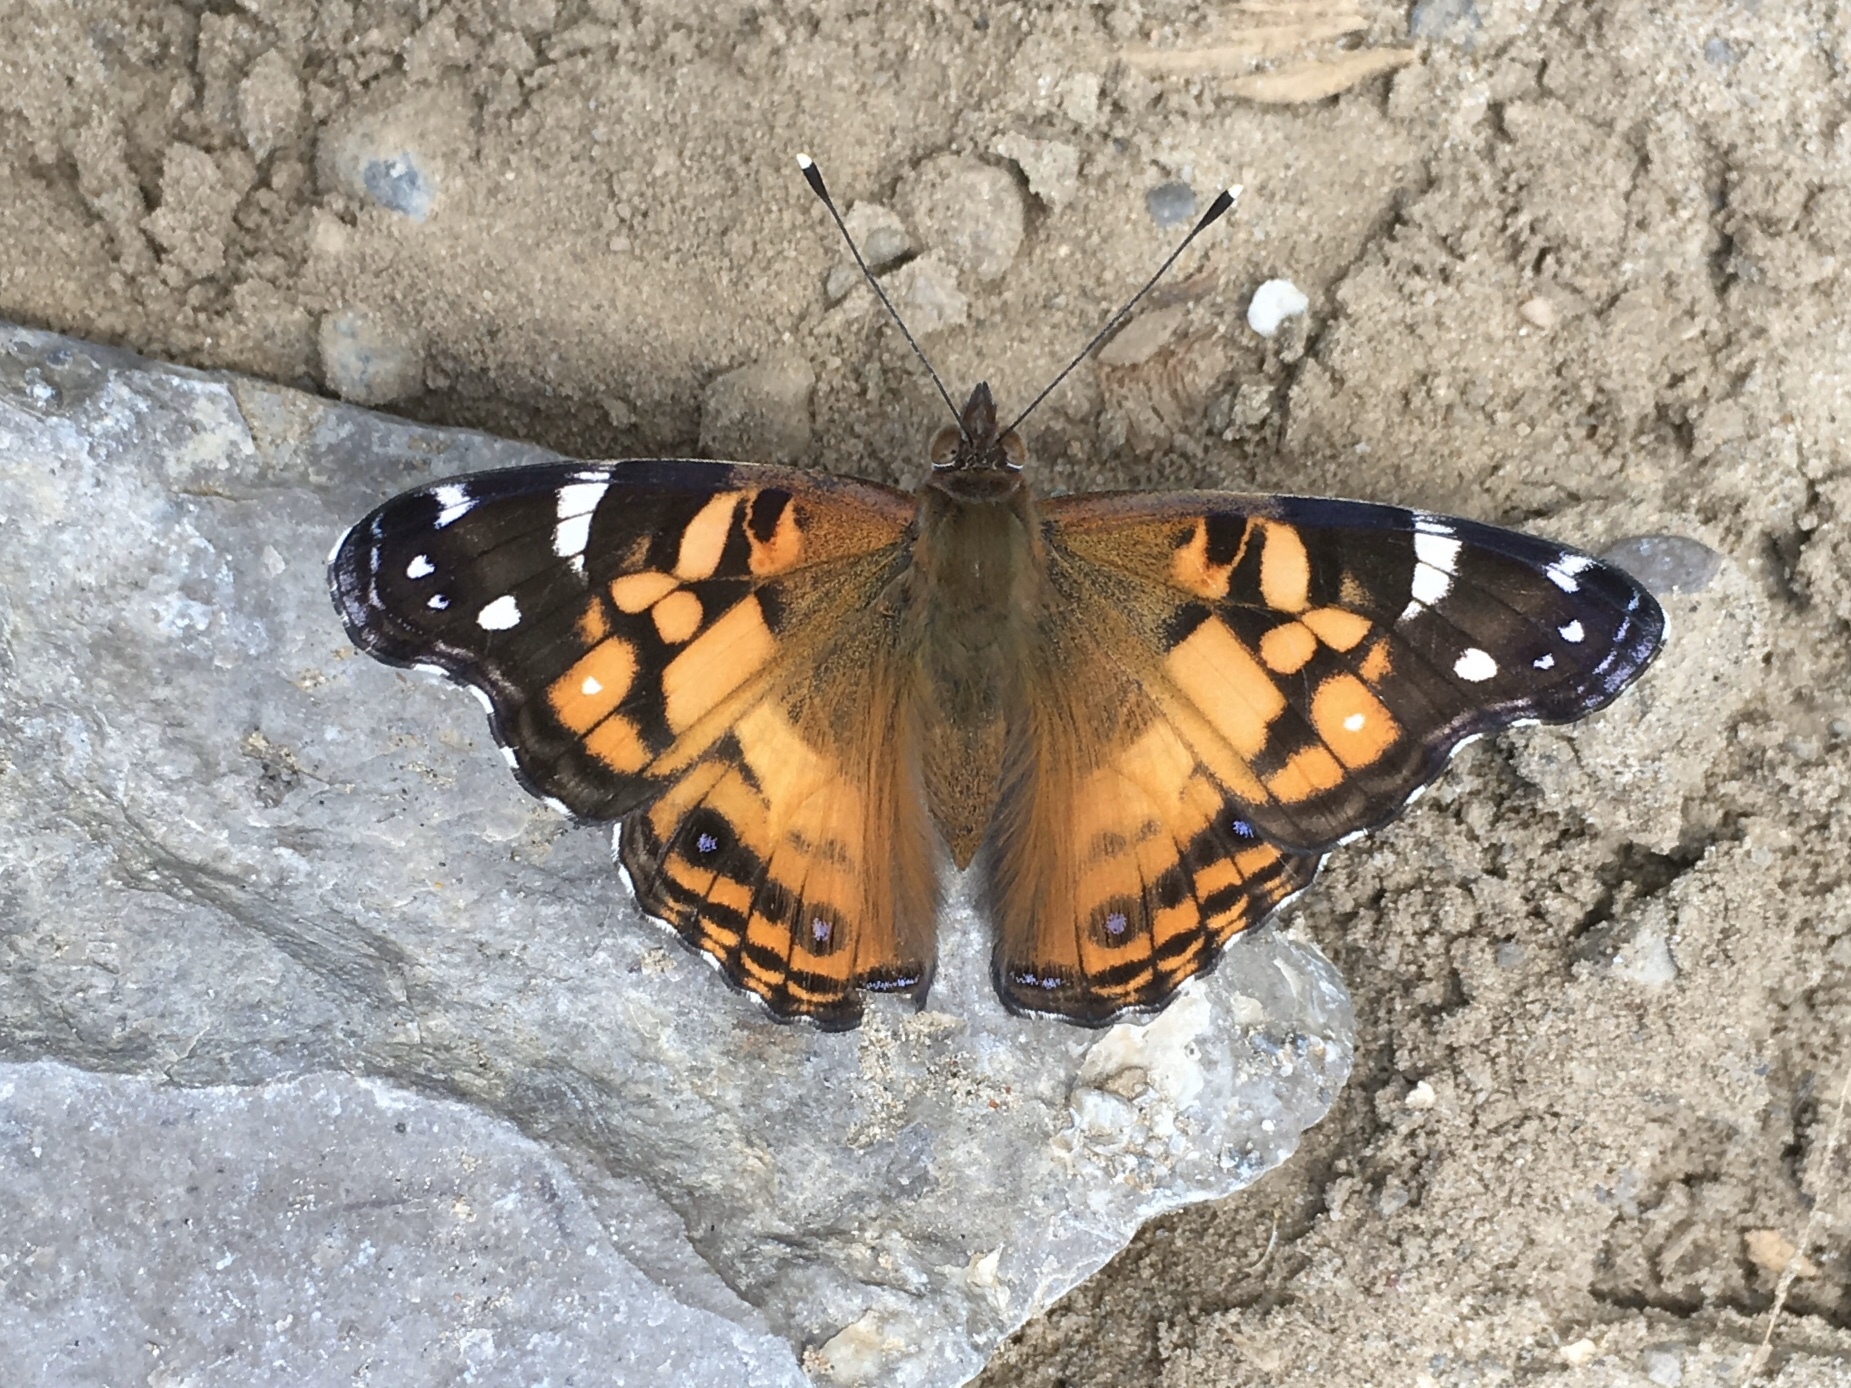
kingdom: Animalia
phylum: Arthropoda
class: Insecta
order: Lepidoptera
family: Nymphalidae
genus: Vanessa
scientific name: Vanessa virginiensis
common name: American lady
